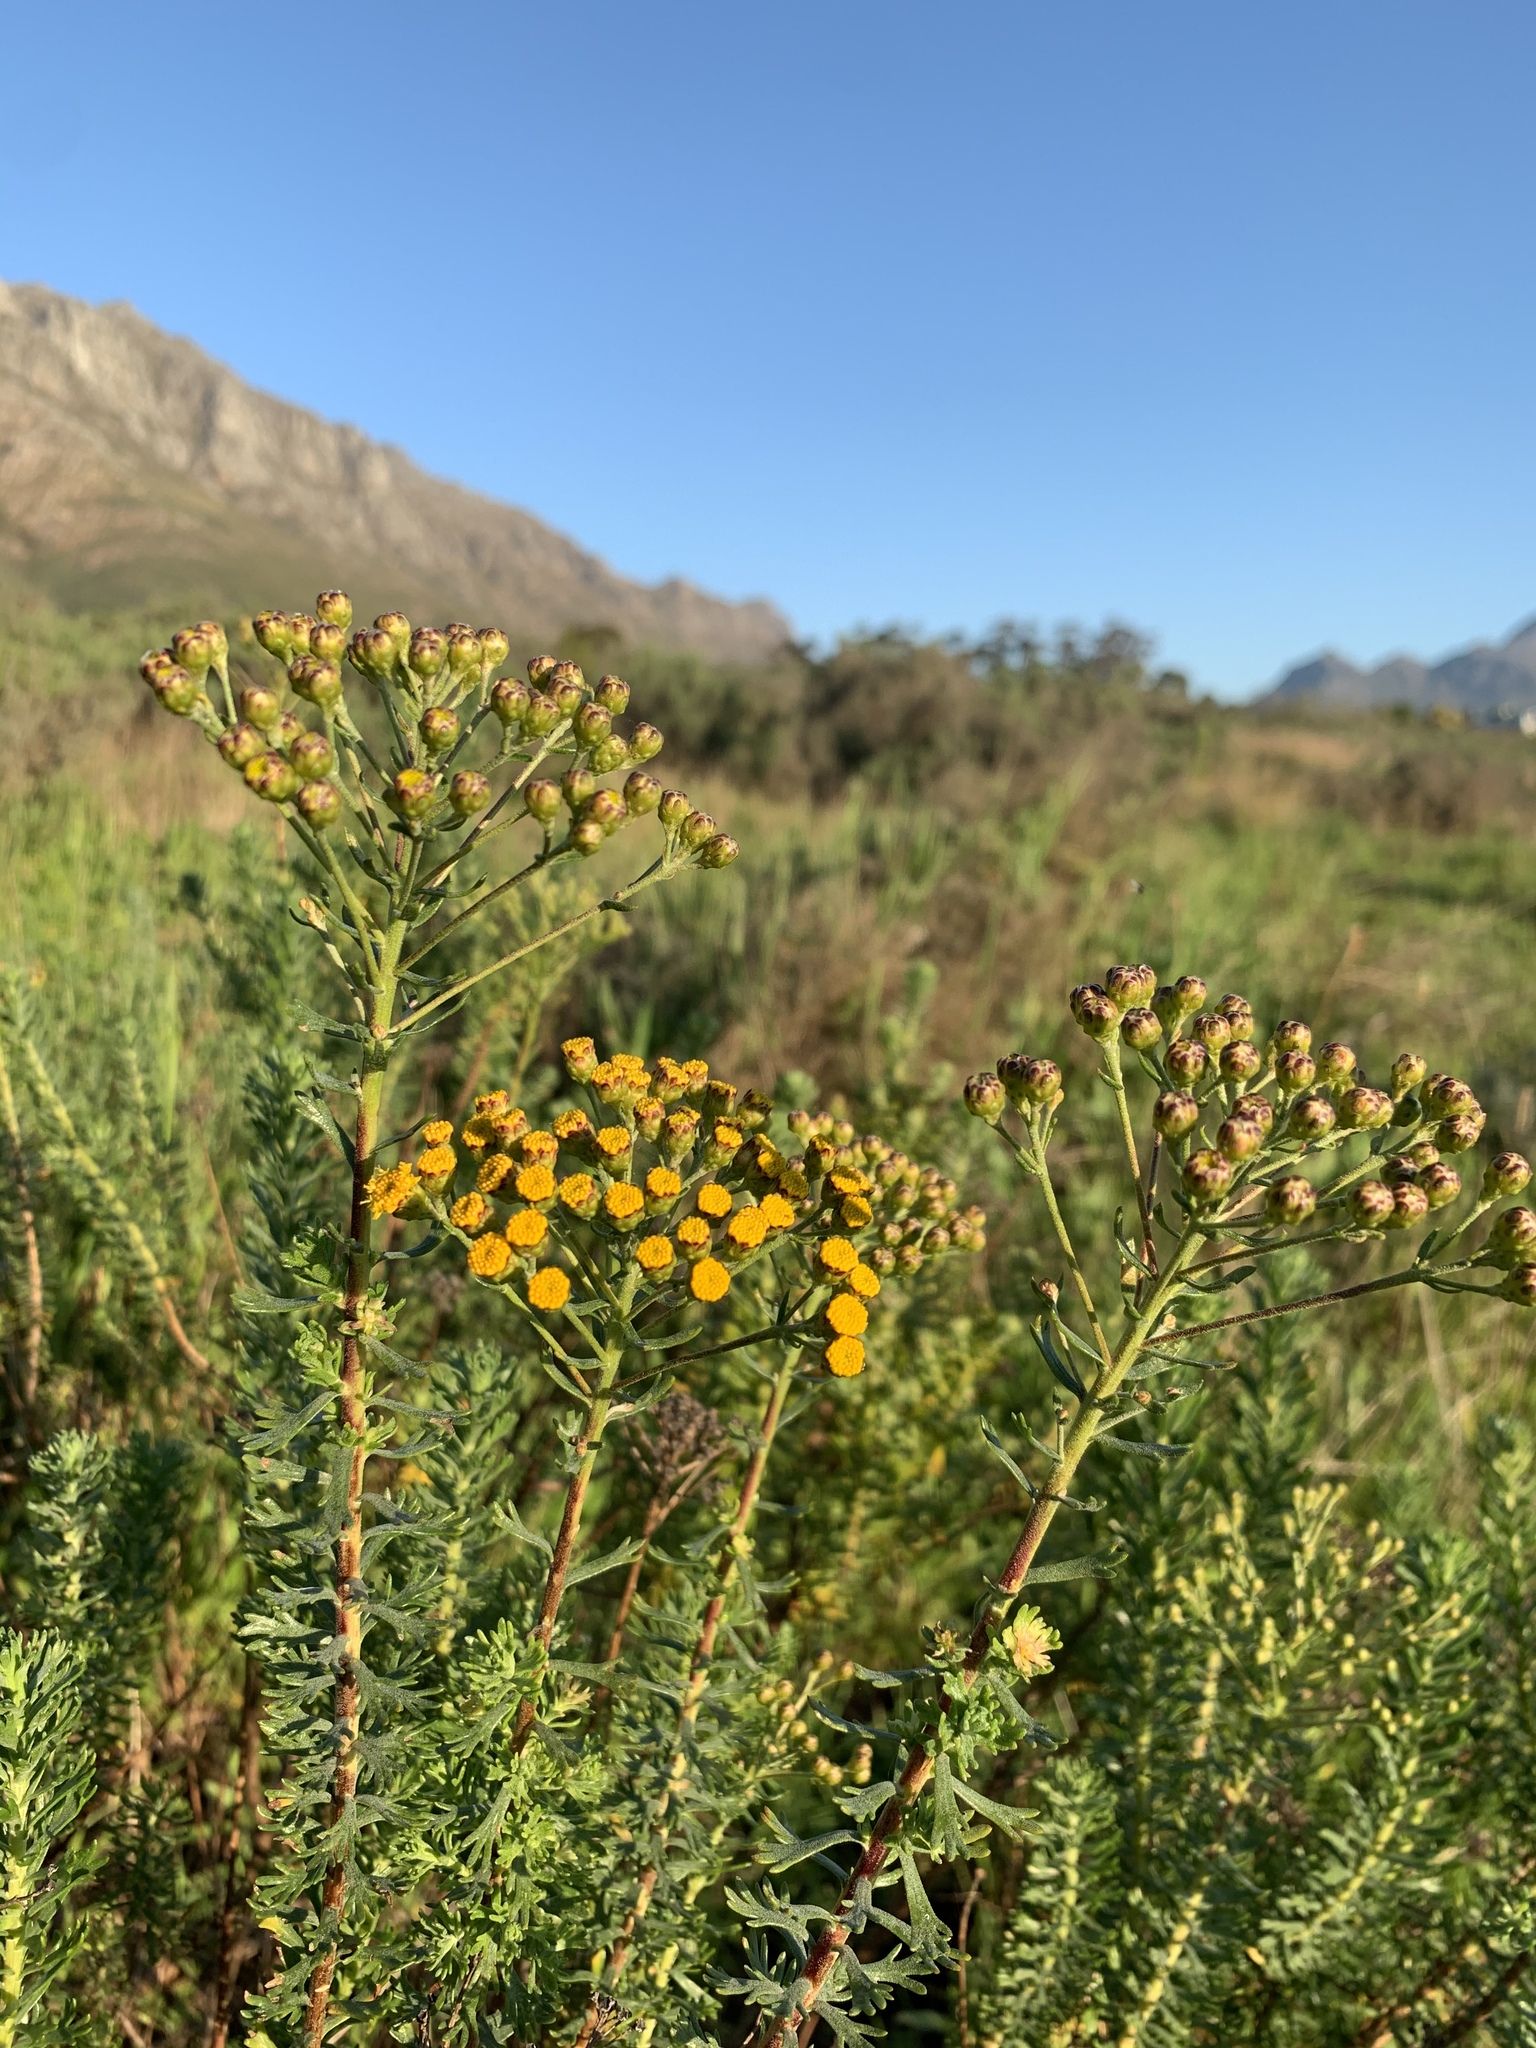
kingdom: Plantae
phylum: Tracheophyta
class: Magnoliopsida
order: Asterales
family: Asteraceae
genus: Athanasia
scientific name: Athanasia trifurcata
